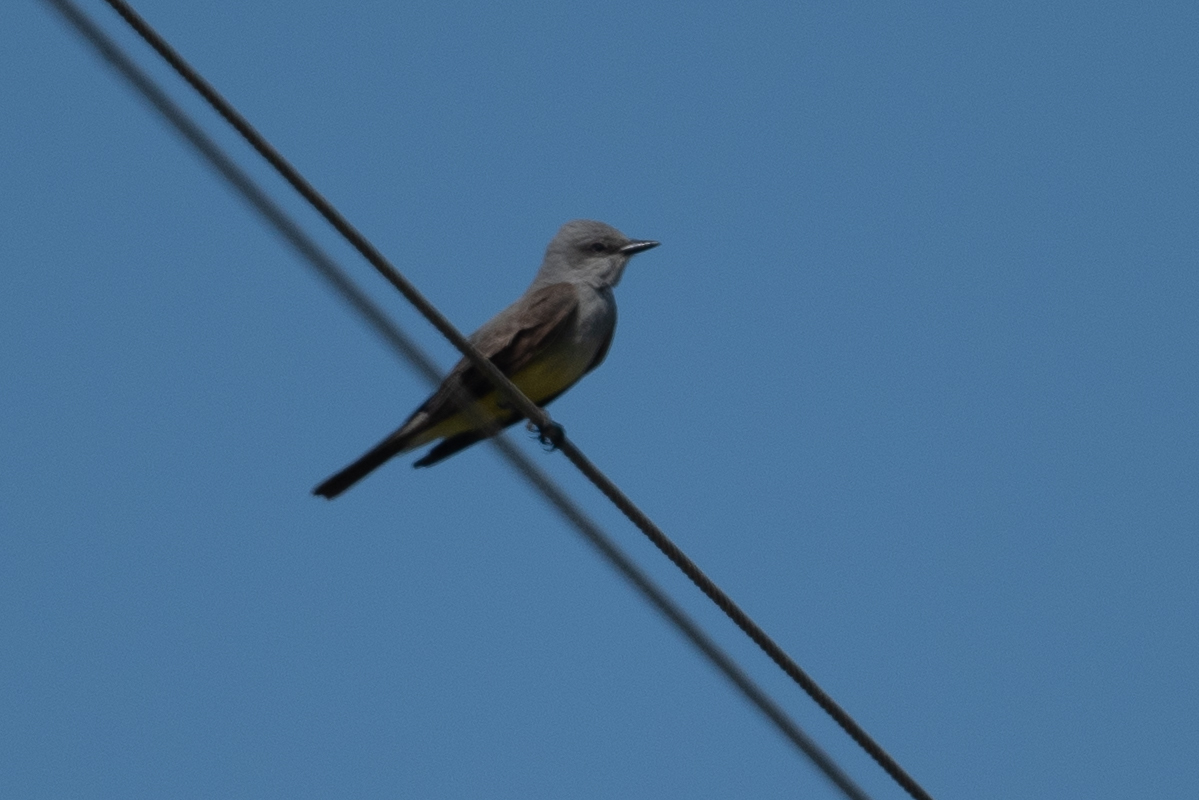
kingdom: Animalia
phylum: Chordata
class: Aves
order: Passeriformes
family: Tyrannidae
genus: Tyrannus
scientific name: Tyrannus verticalis
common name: Western kingbird
